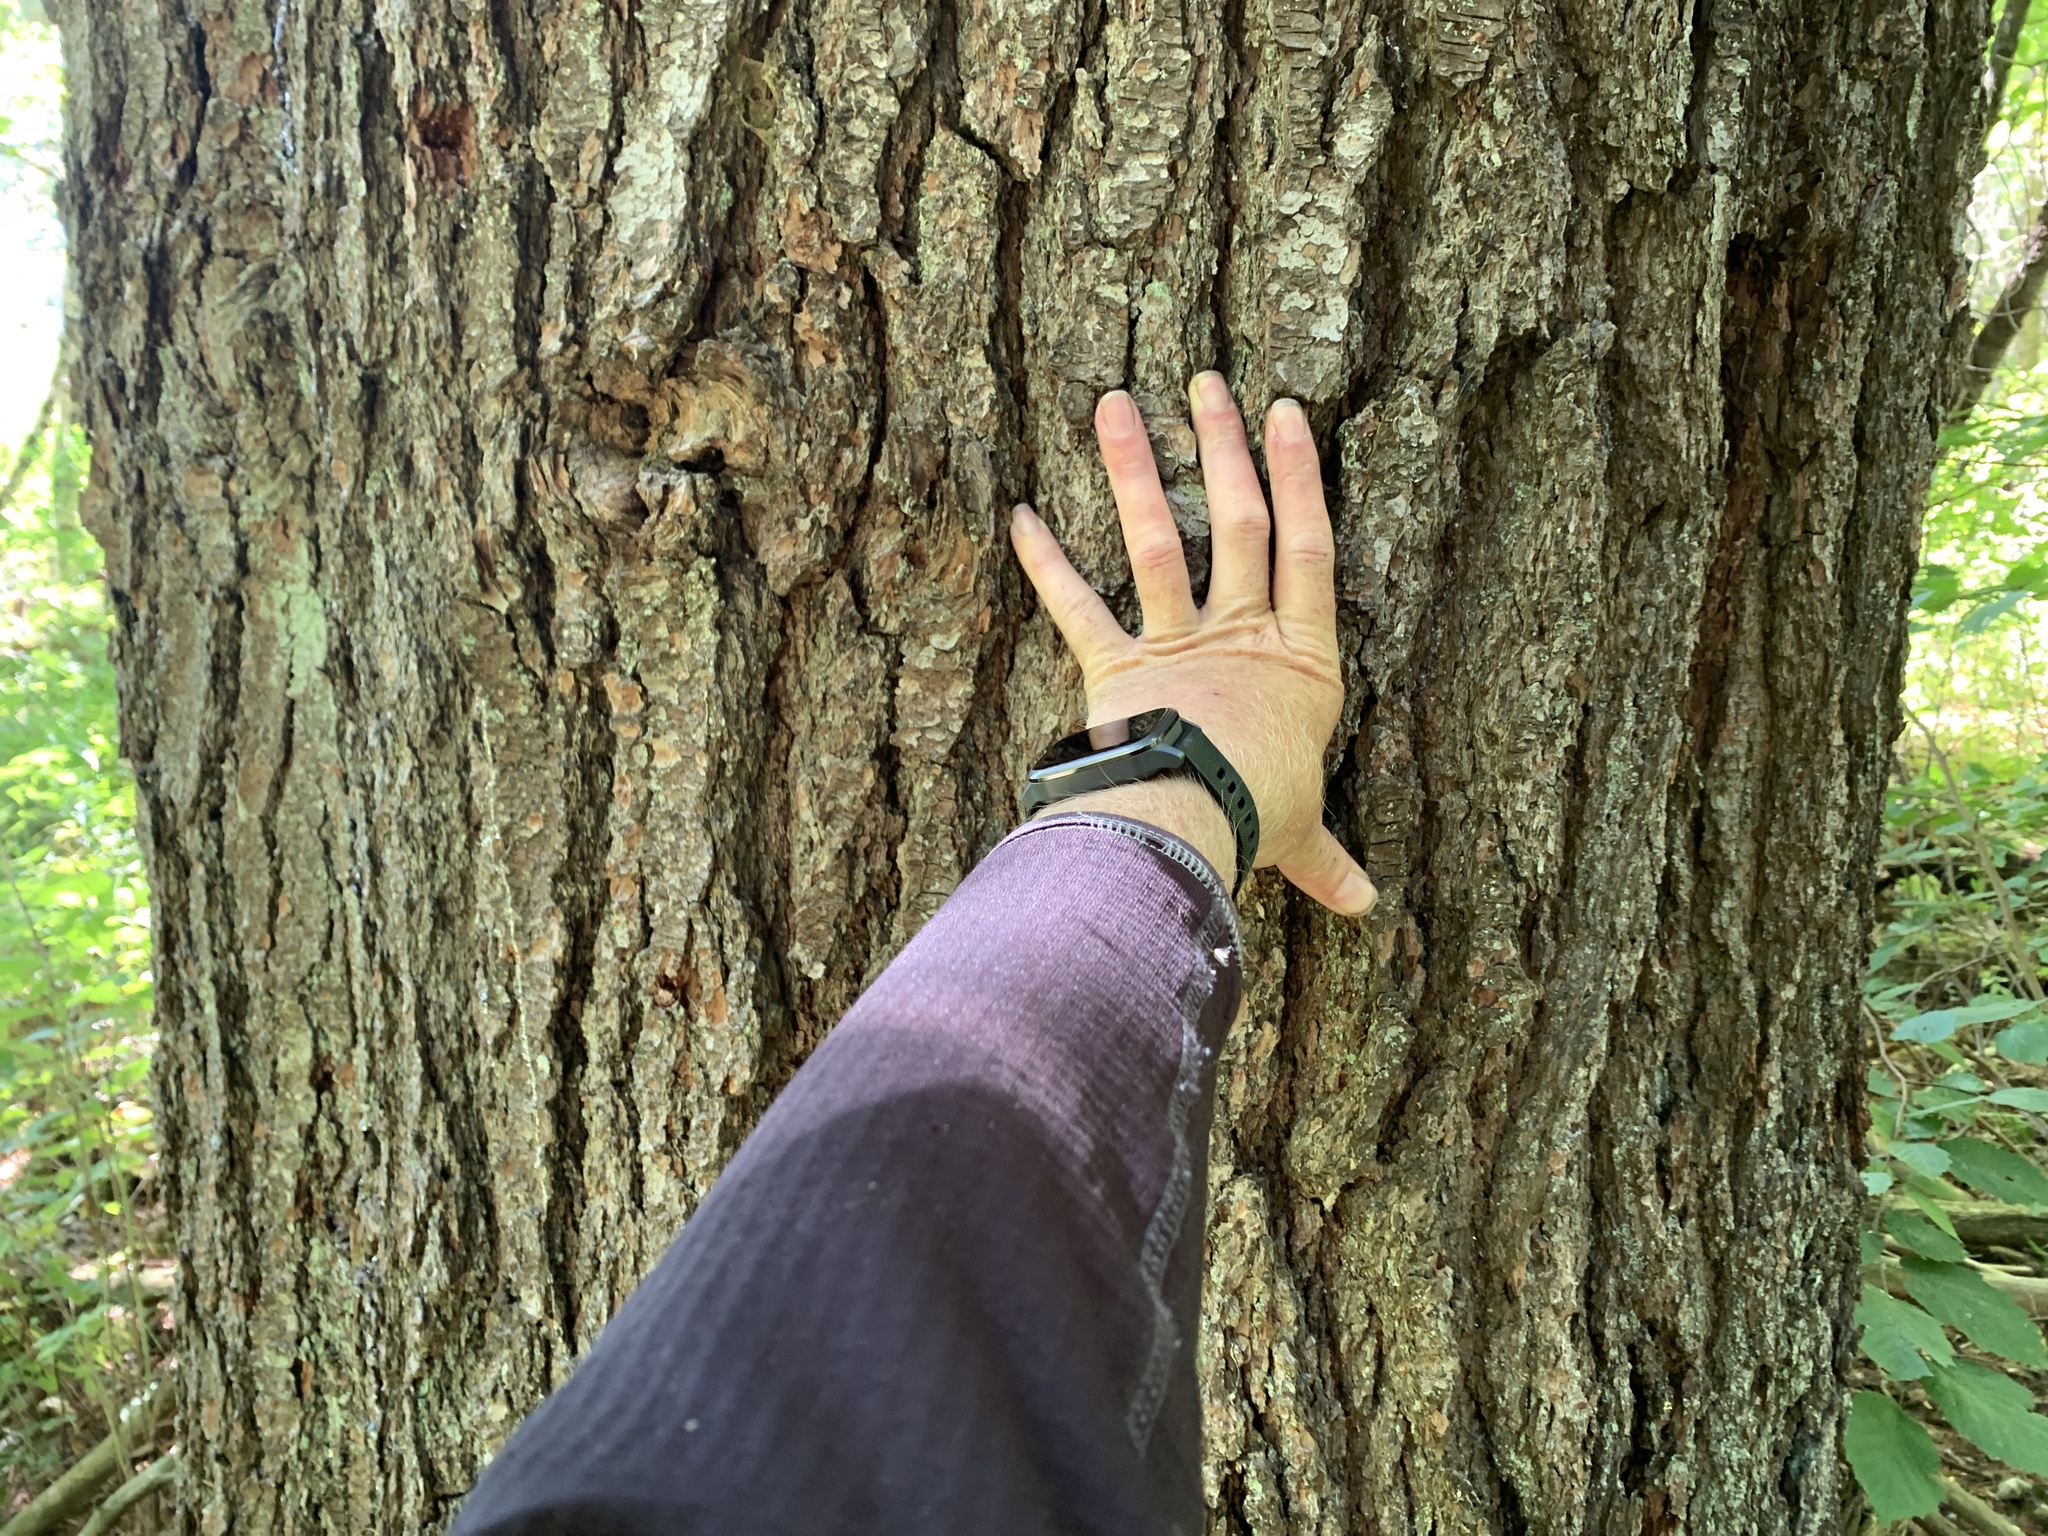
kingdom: Plantae
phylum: Tracheophyta
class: Pinopsida
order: Pinales
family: Pinaceae
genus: Pinus
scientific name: Pinus strobus
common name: Weymouth pine
